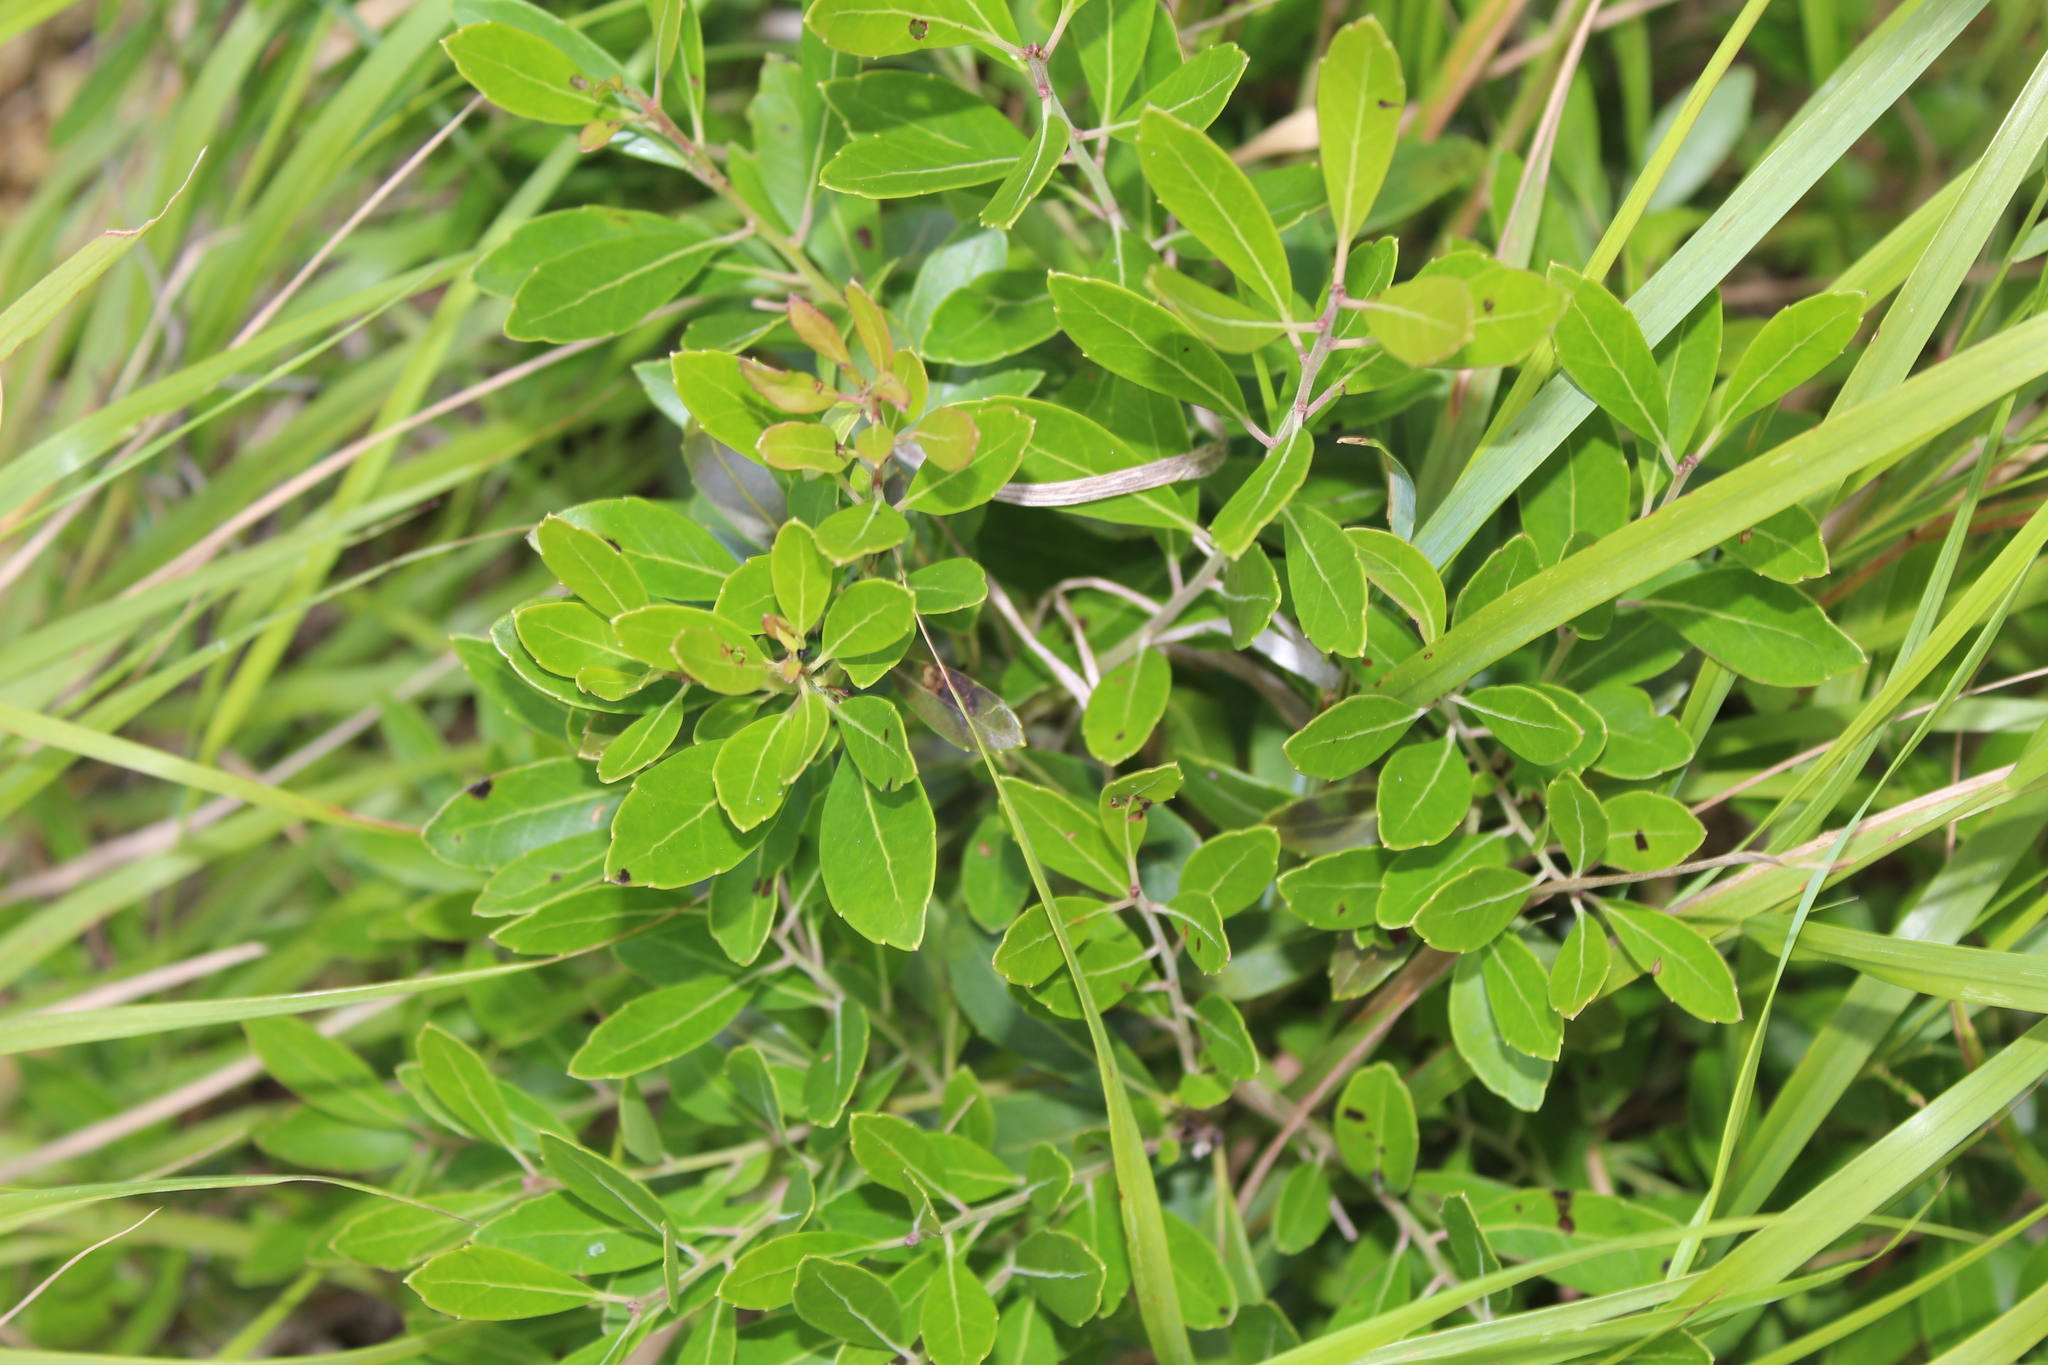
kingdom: Plantae
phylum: Tracheophyta
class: Magnoliopsida
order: Aquifoliales
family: Aquifoliaceae
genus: Ilex
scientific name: Ilex glabra
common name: Bitter gallberry
